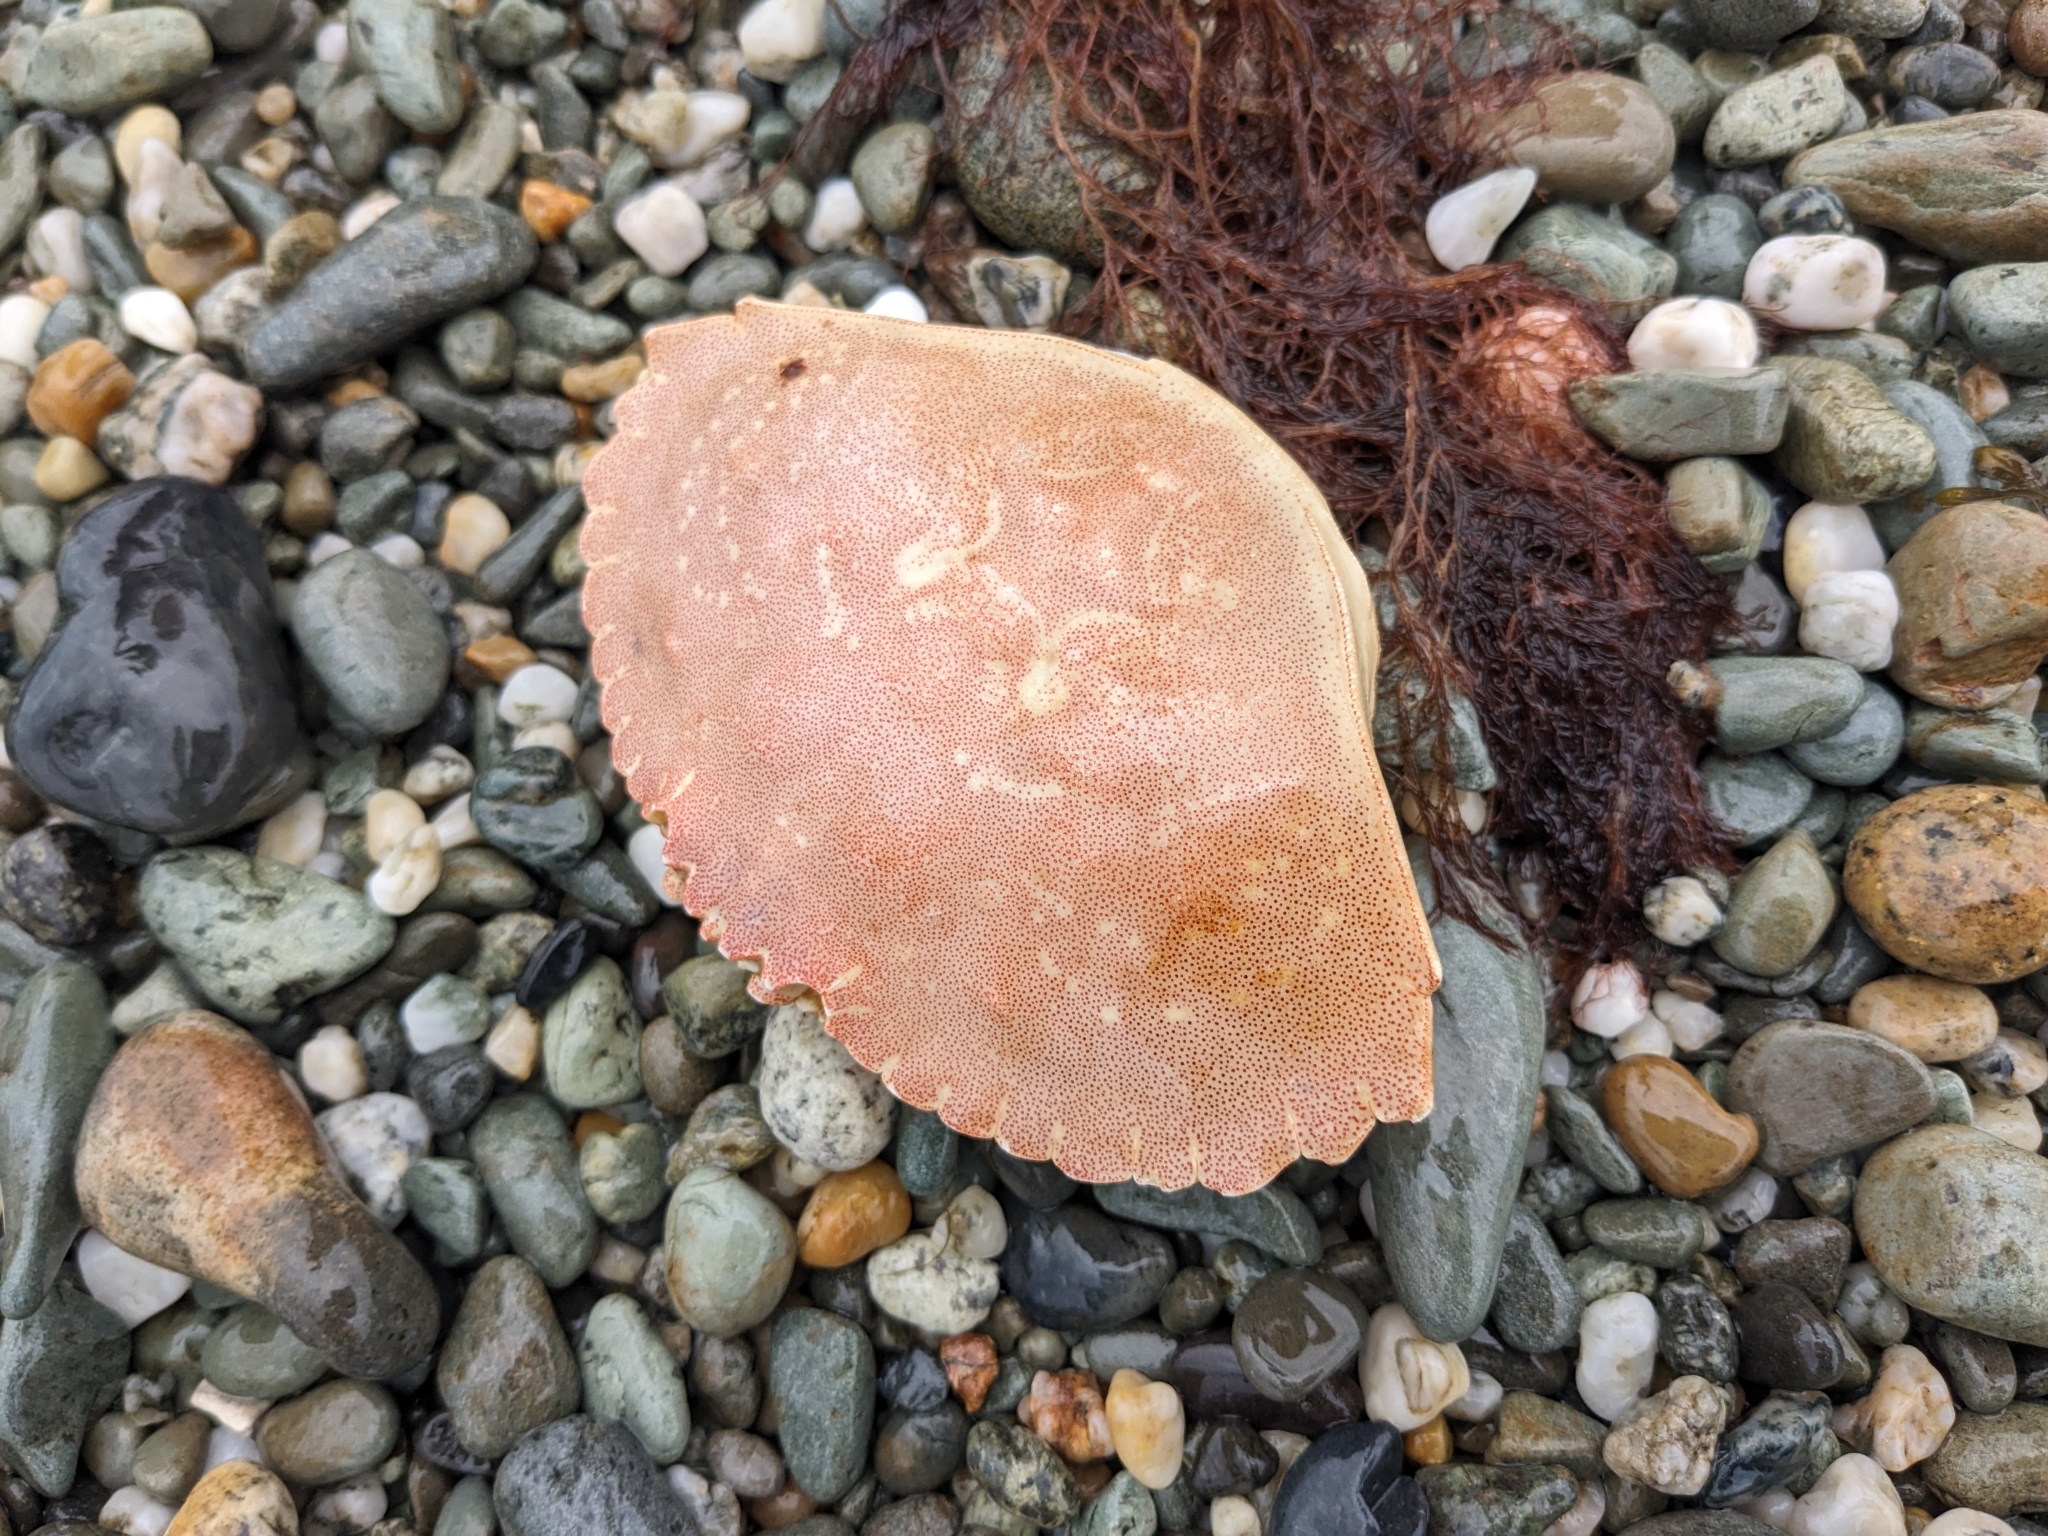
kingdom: Animalia
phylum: Arthropoda
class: Malacostraca
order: Decapoda
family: Cancridae
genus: Cancer
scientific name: Cancer irroratus
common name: Atlantic rock crab
